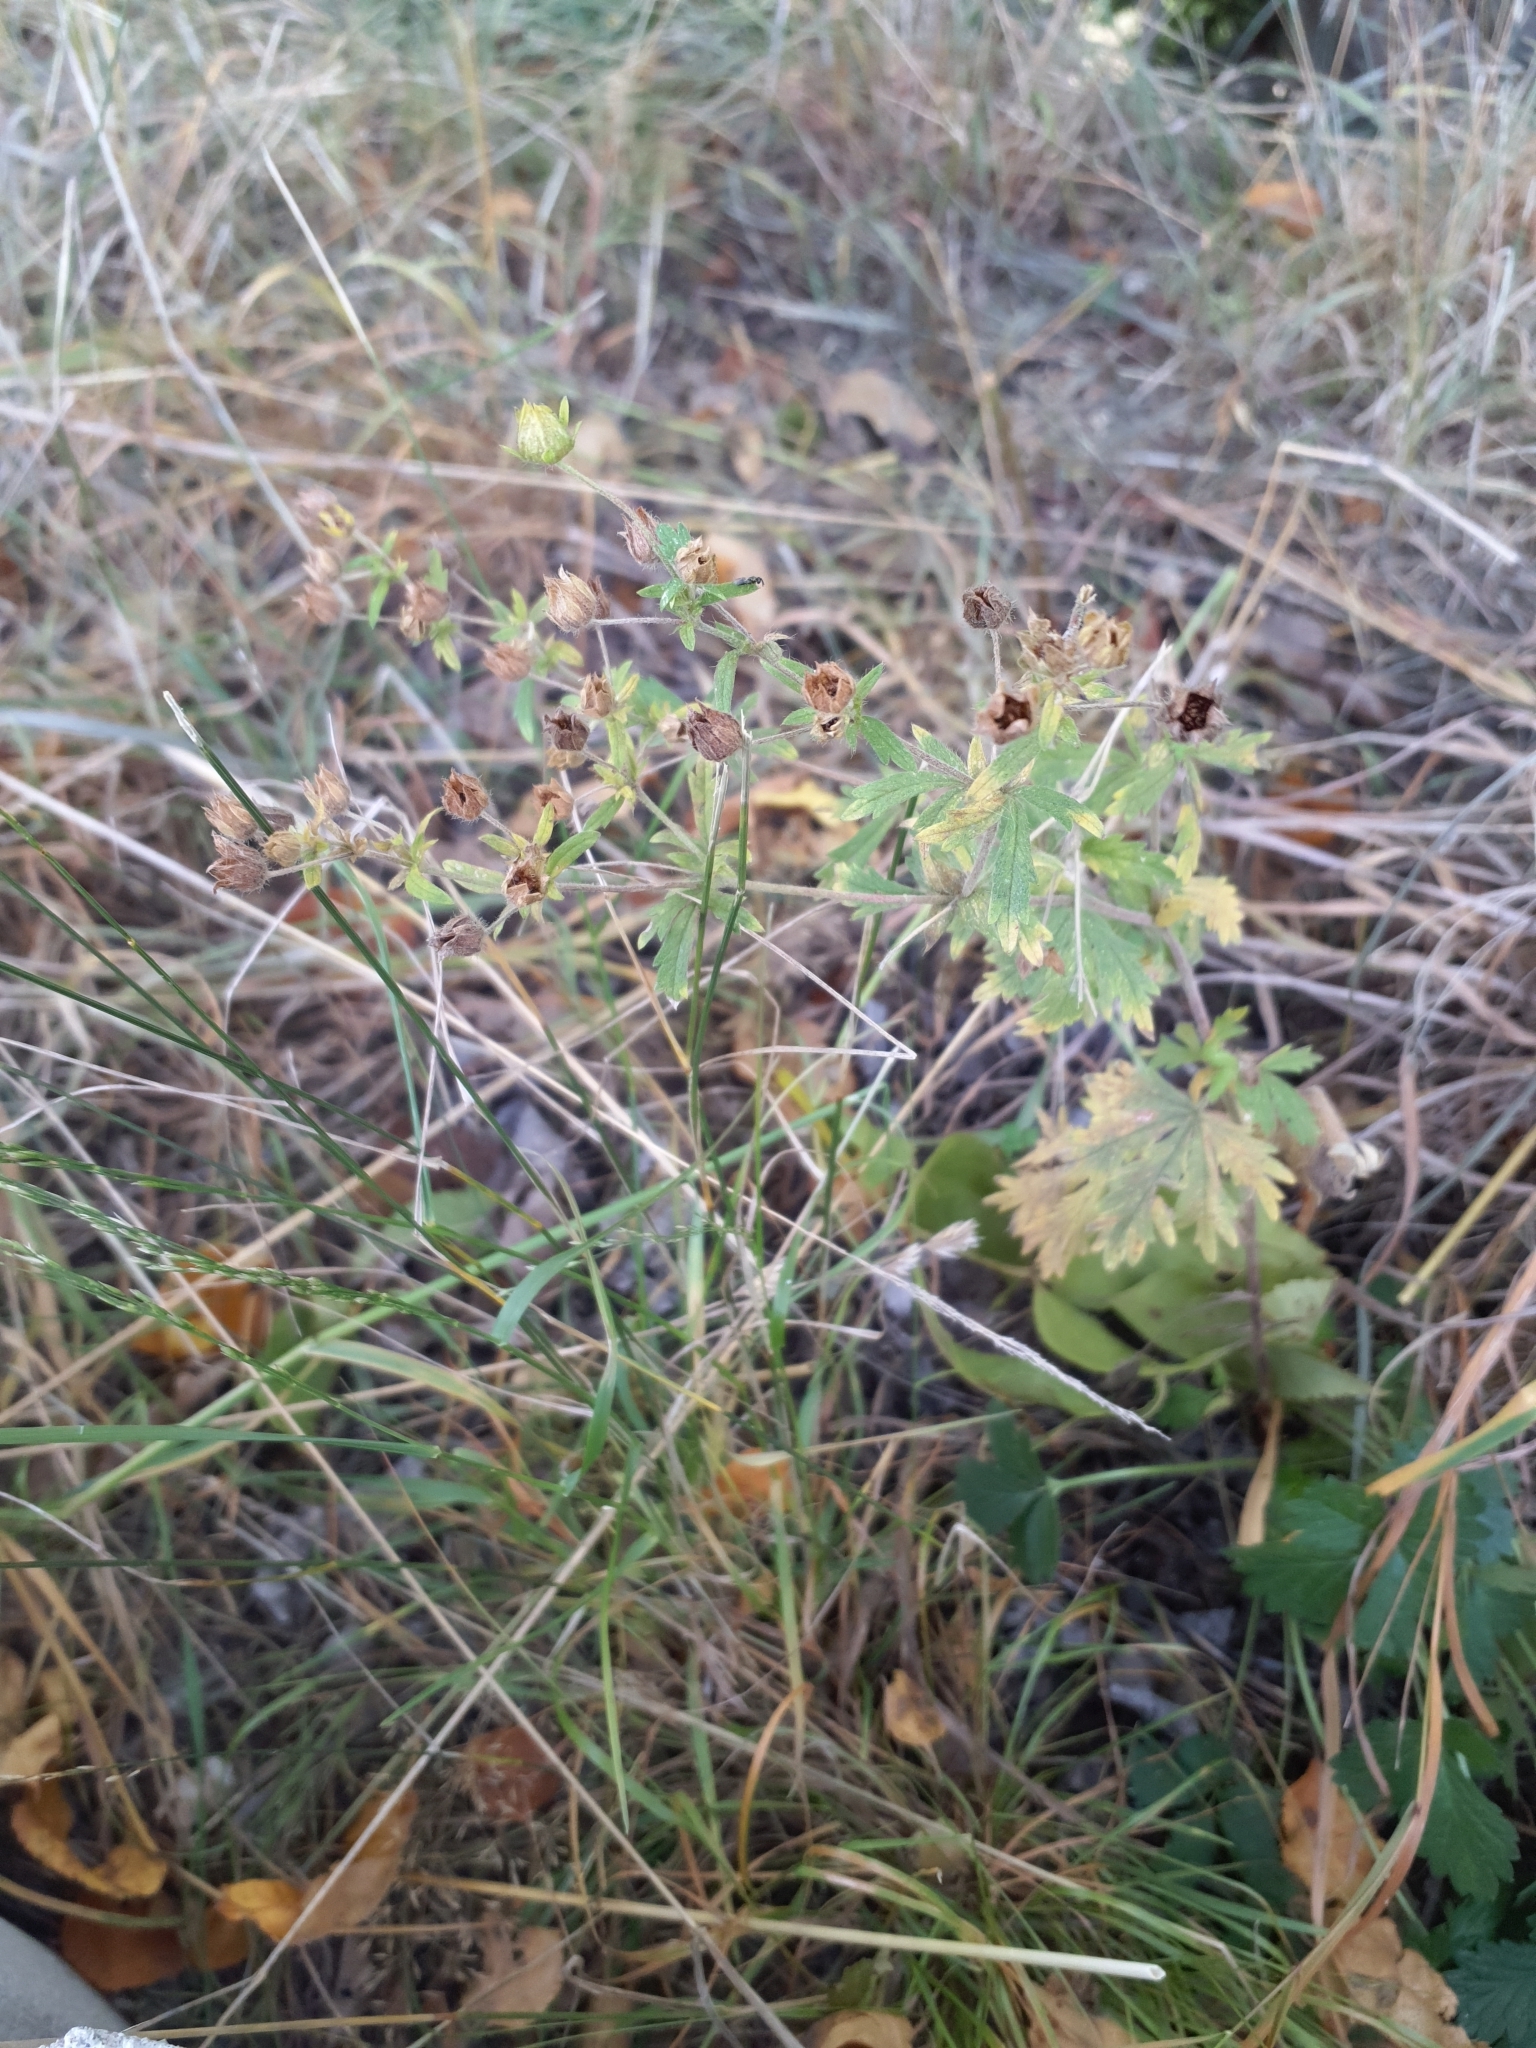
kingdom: Plantae
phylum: Tracheophyta
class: Magnoliopsida
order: Rosales
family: Rosaceae
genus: Potentilla
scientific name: Potentilla argentea
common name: Hoary cinquefoil
